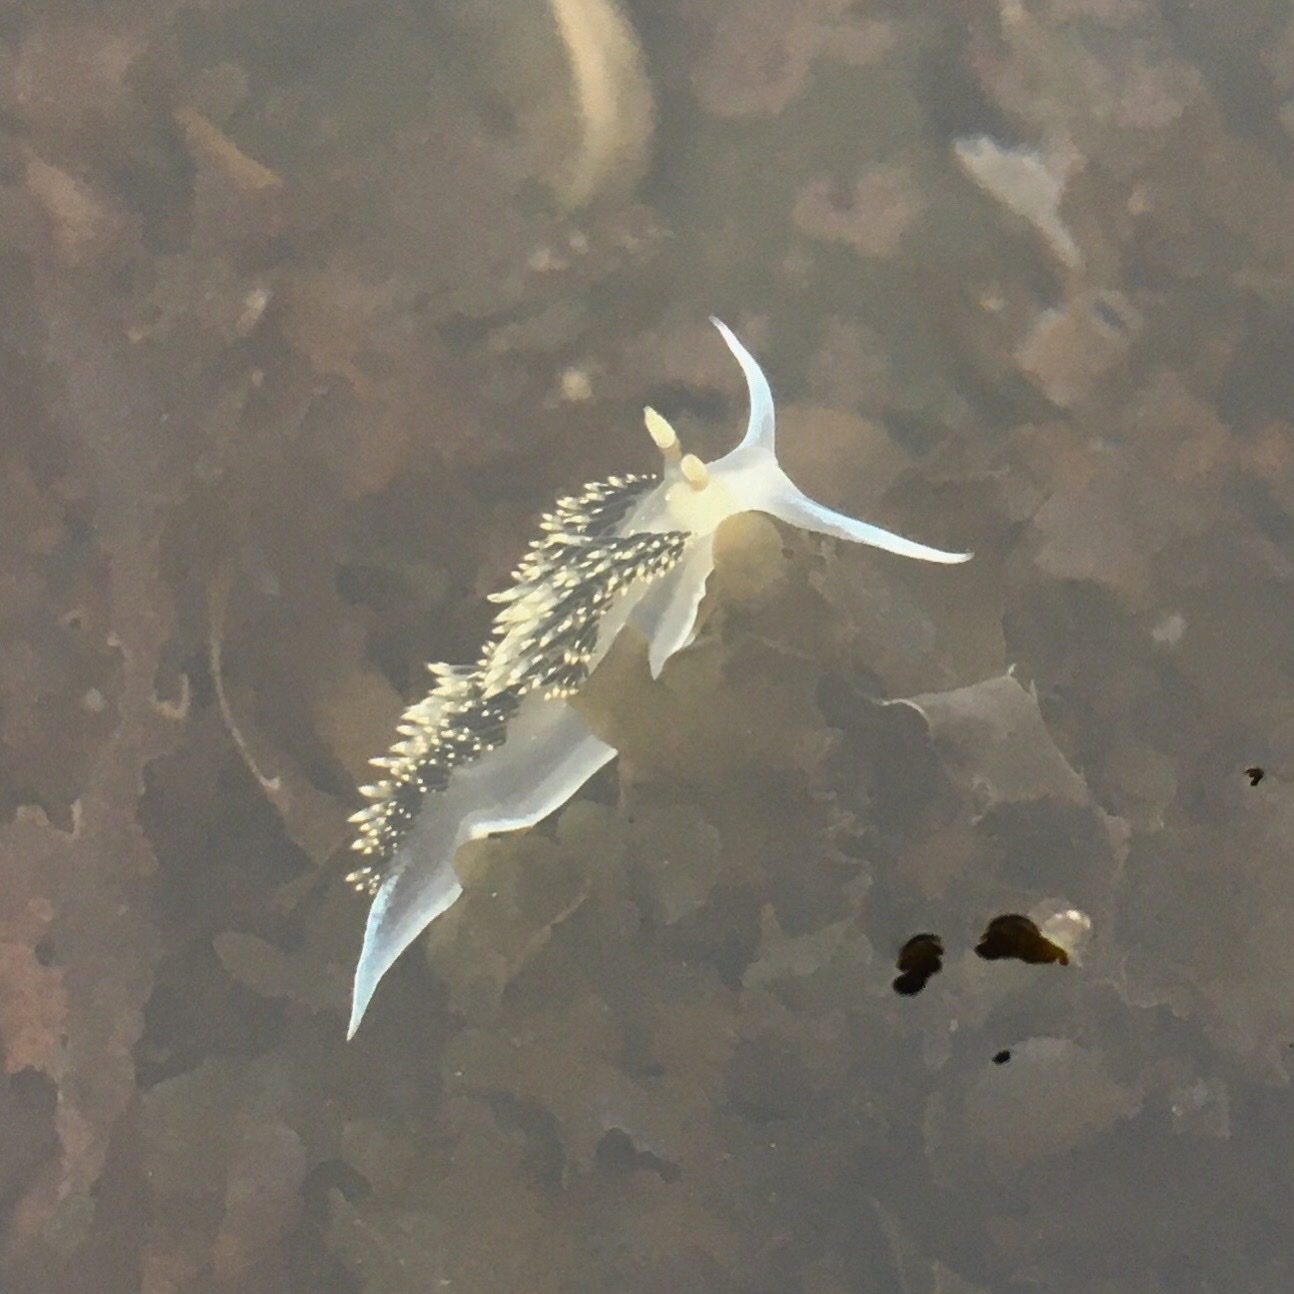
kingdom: Animalia
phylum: Mollusca
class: Gastropoda
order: Nudibranchia
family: Facelinidae
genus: Phidiana
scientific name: Phidiana hiltoni
